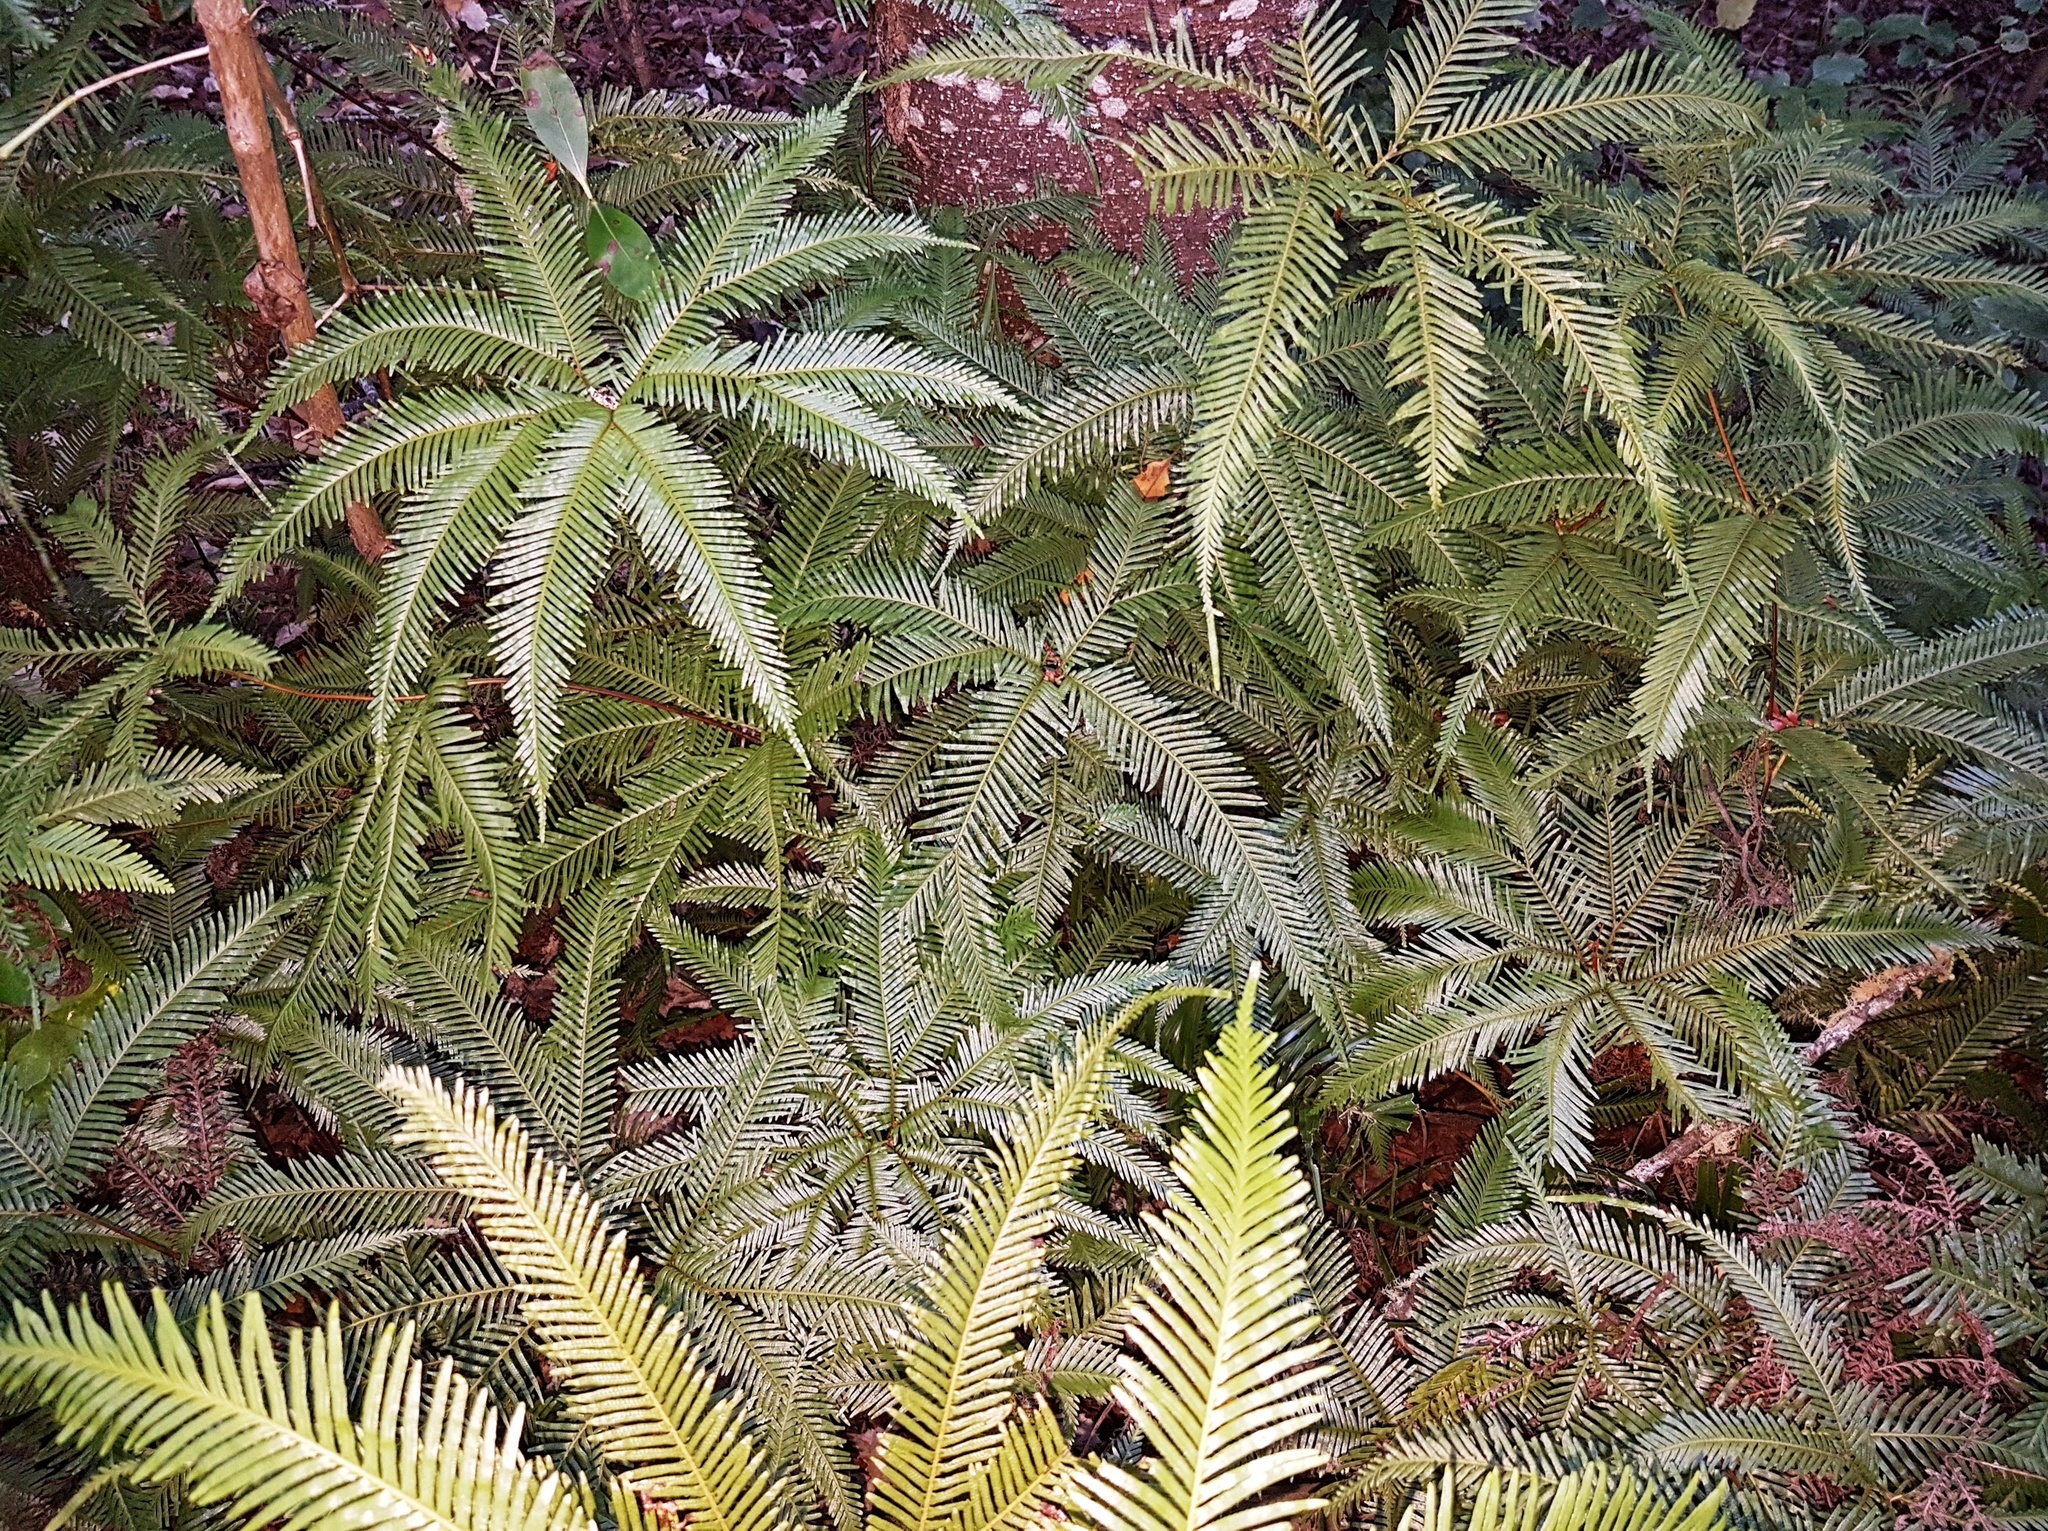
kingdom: Plantae
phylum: Tracheophyta
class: Polypodiopsida
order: Gleicheniales
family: Gleicheniaceae
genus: Sticherus
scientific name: Sticherus flabellatus
